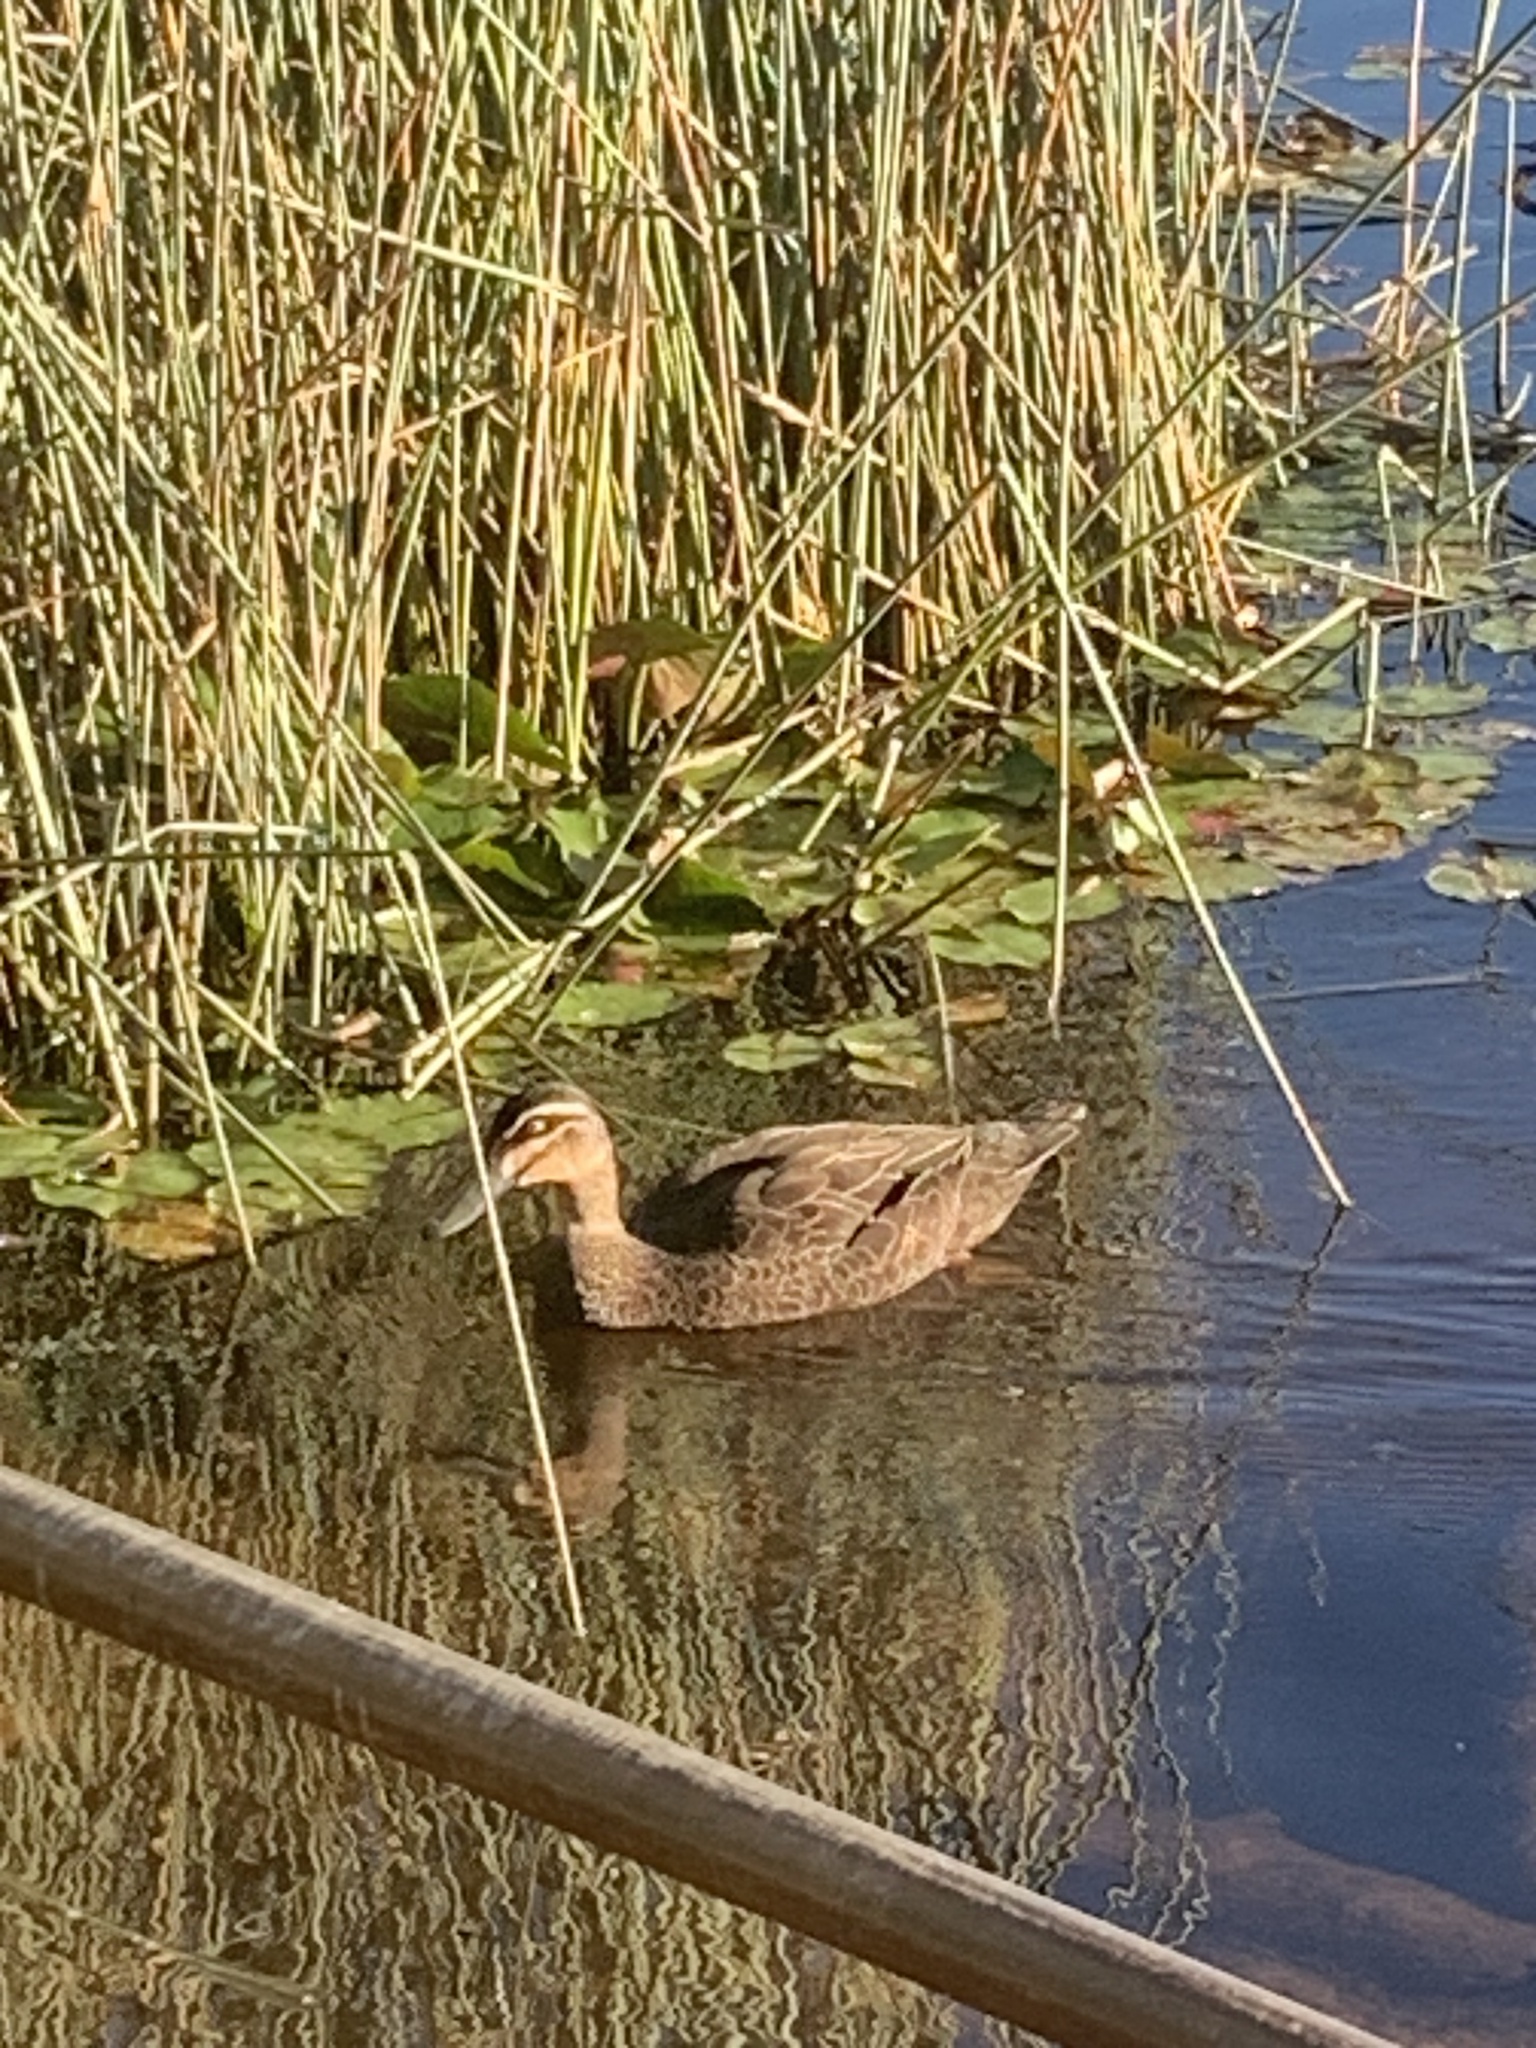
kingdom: Animalia
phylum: Chordata
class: Aves
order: Anseriformes
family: Anatidae
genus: Anas
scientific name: Anas superciliosa
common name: Pacific black duck
